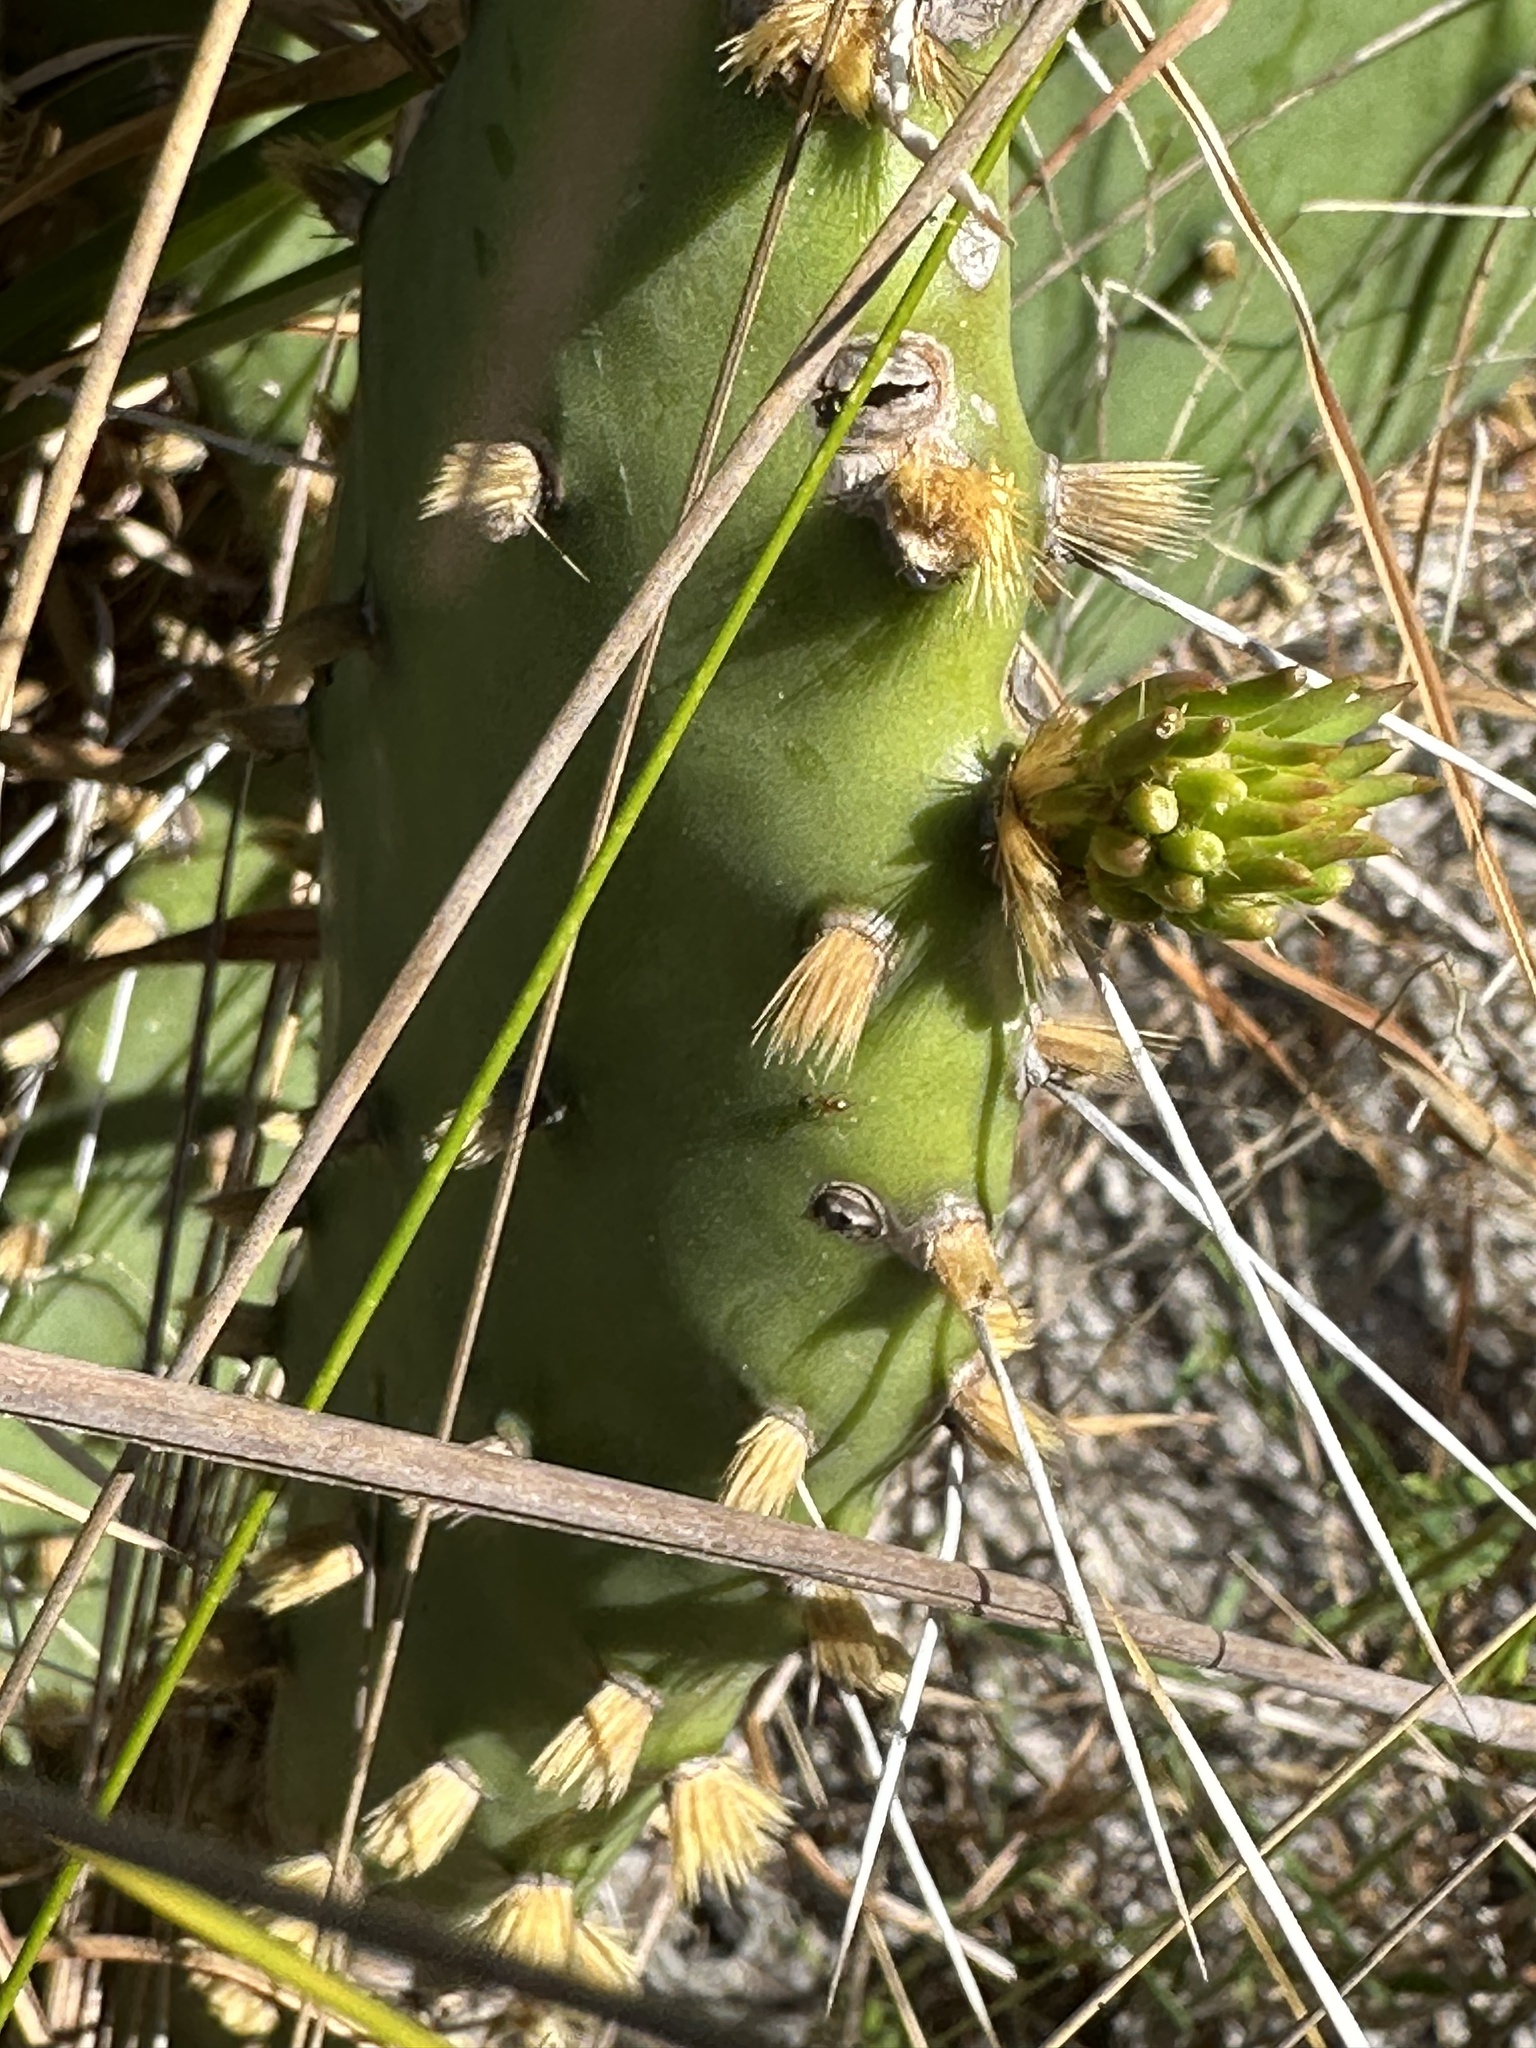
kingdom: Plantae
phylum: Tracheophyta
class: Magnoliopsida
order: Caryophyllales
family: Cactaceae
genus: Opuntia
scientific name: Opuntia austrina
